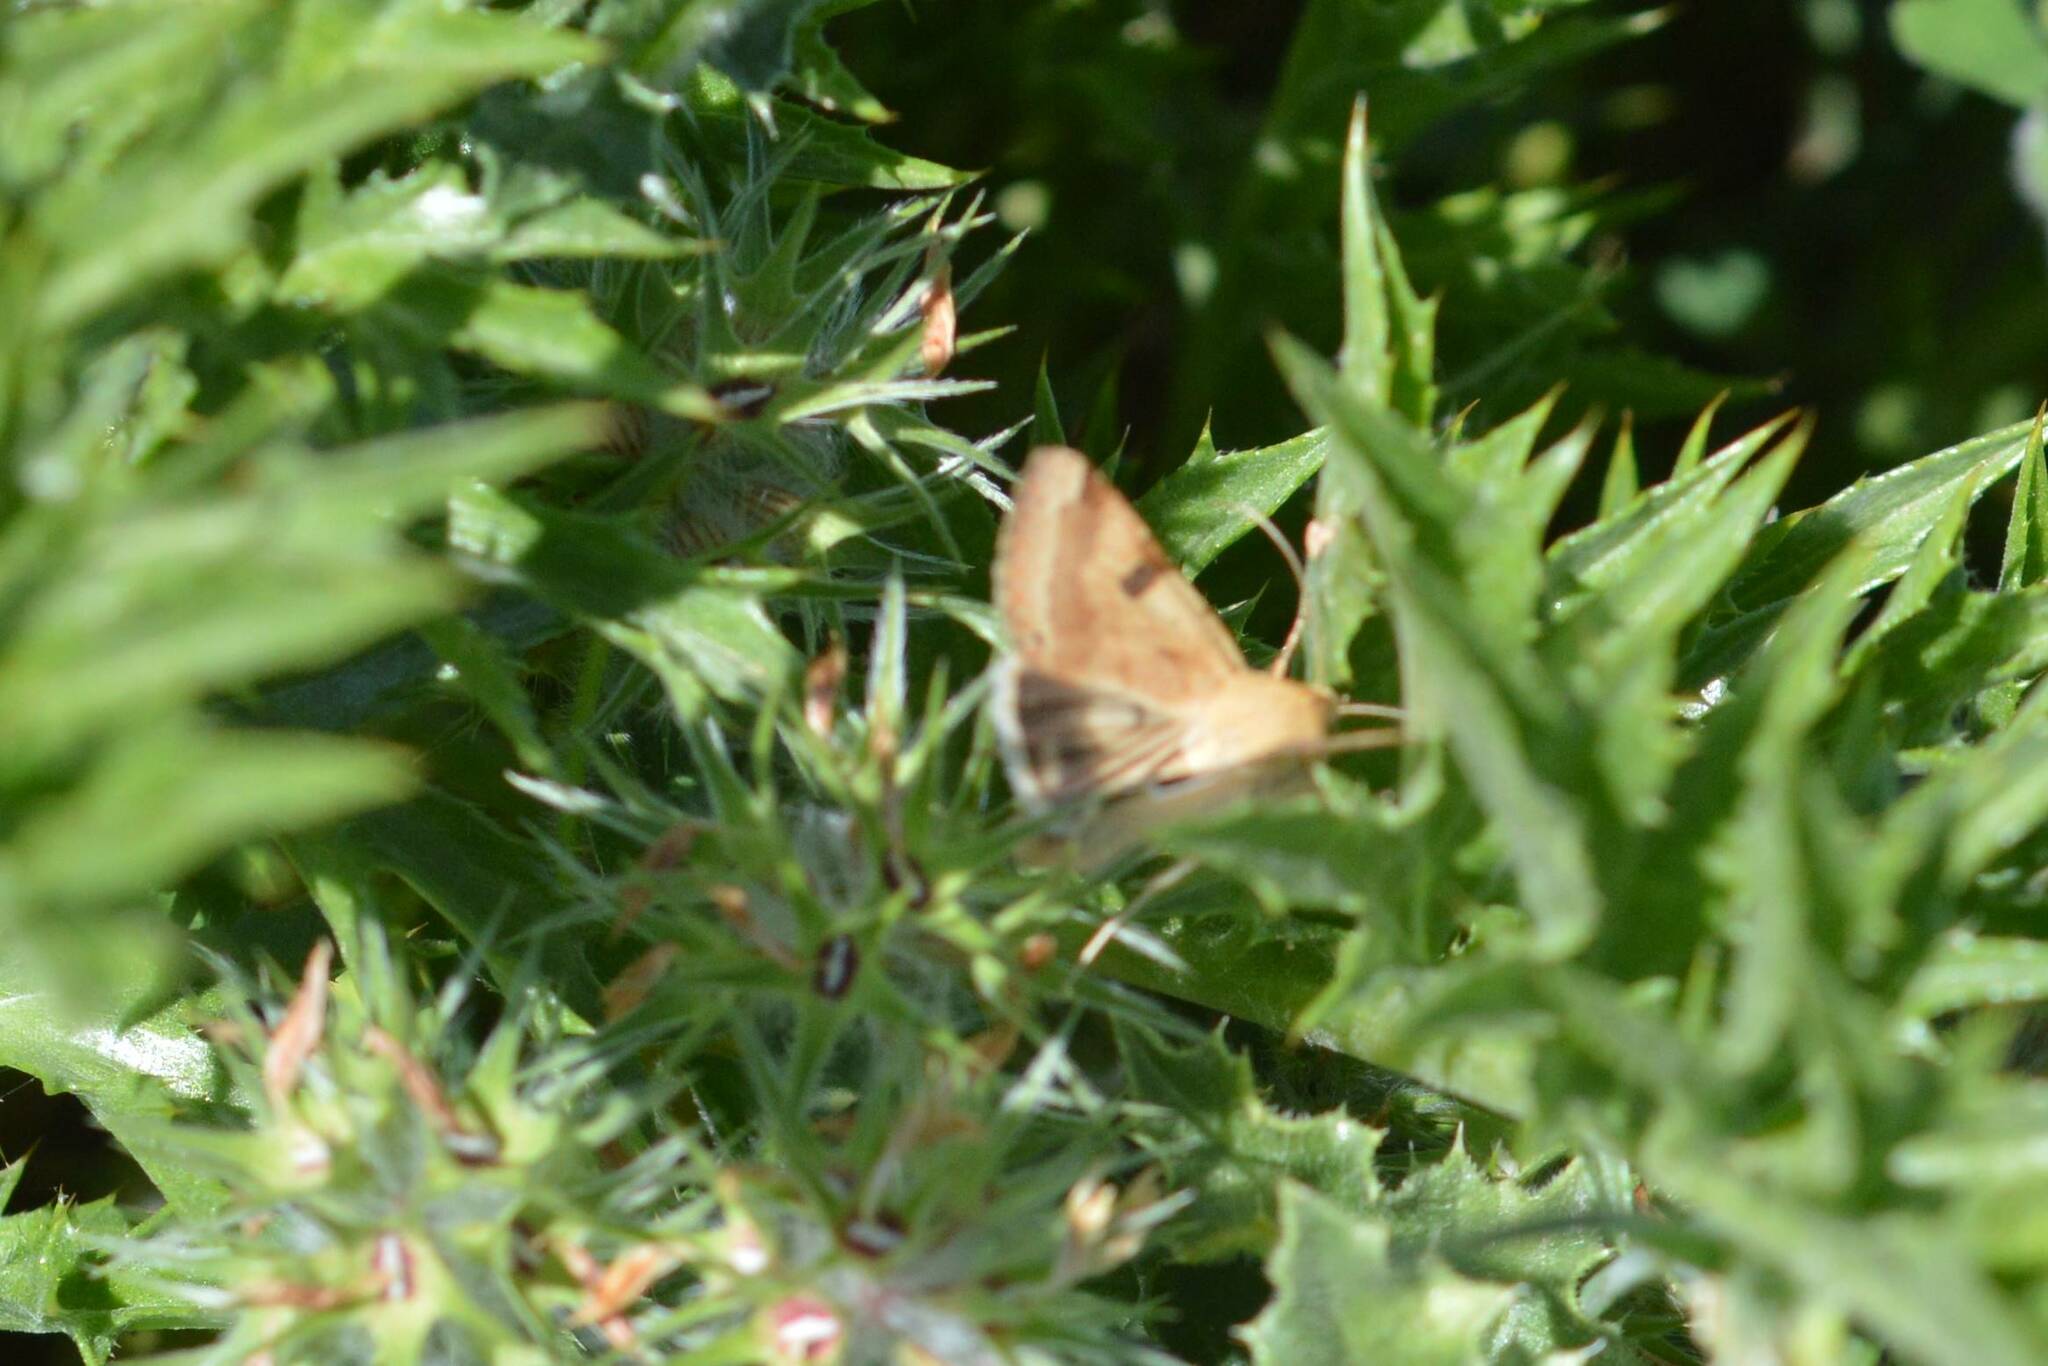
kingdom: Animalia
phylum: Arthropoda
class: Insecta
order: Lepidoptera
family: Noctuidae
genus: Heliothis
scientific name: Heliothis peltigera
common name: Bordered straw
